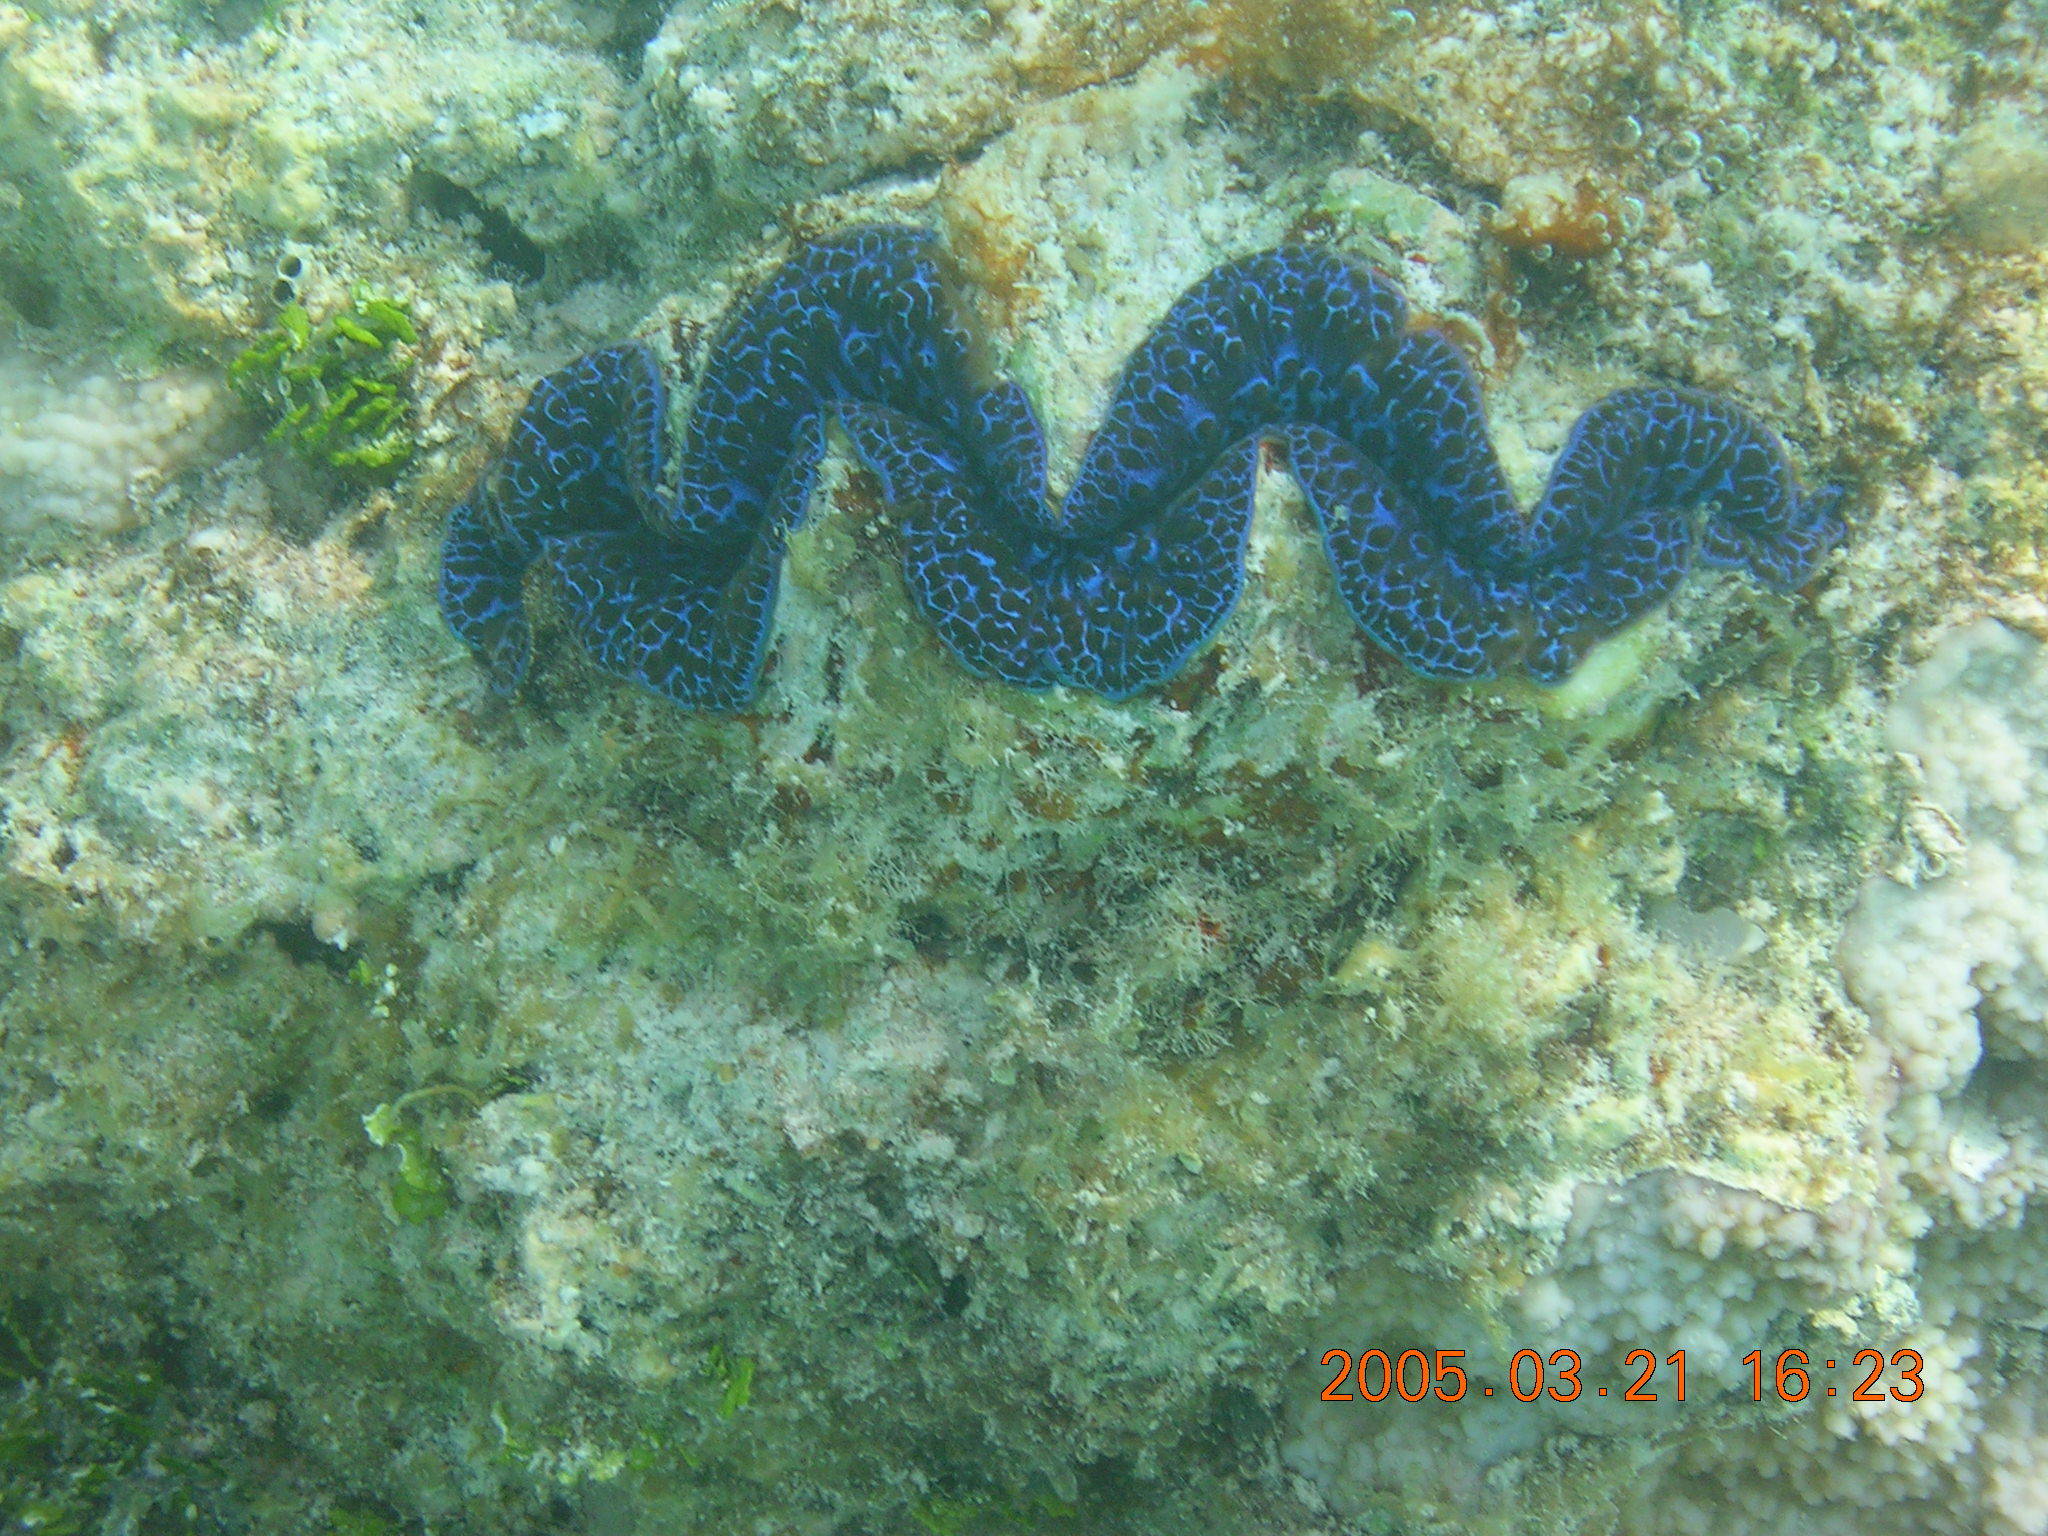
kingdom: Animalia
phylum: Mollusca
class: Bivalvia
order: Cardiida
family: Cardiidae
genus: Tridacna
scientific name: Tridacna maxima
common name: Small giant clam
